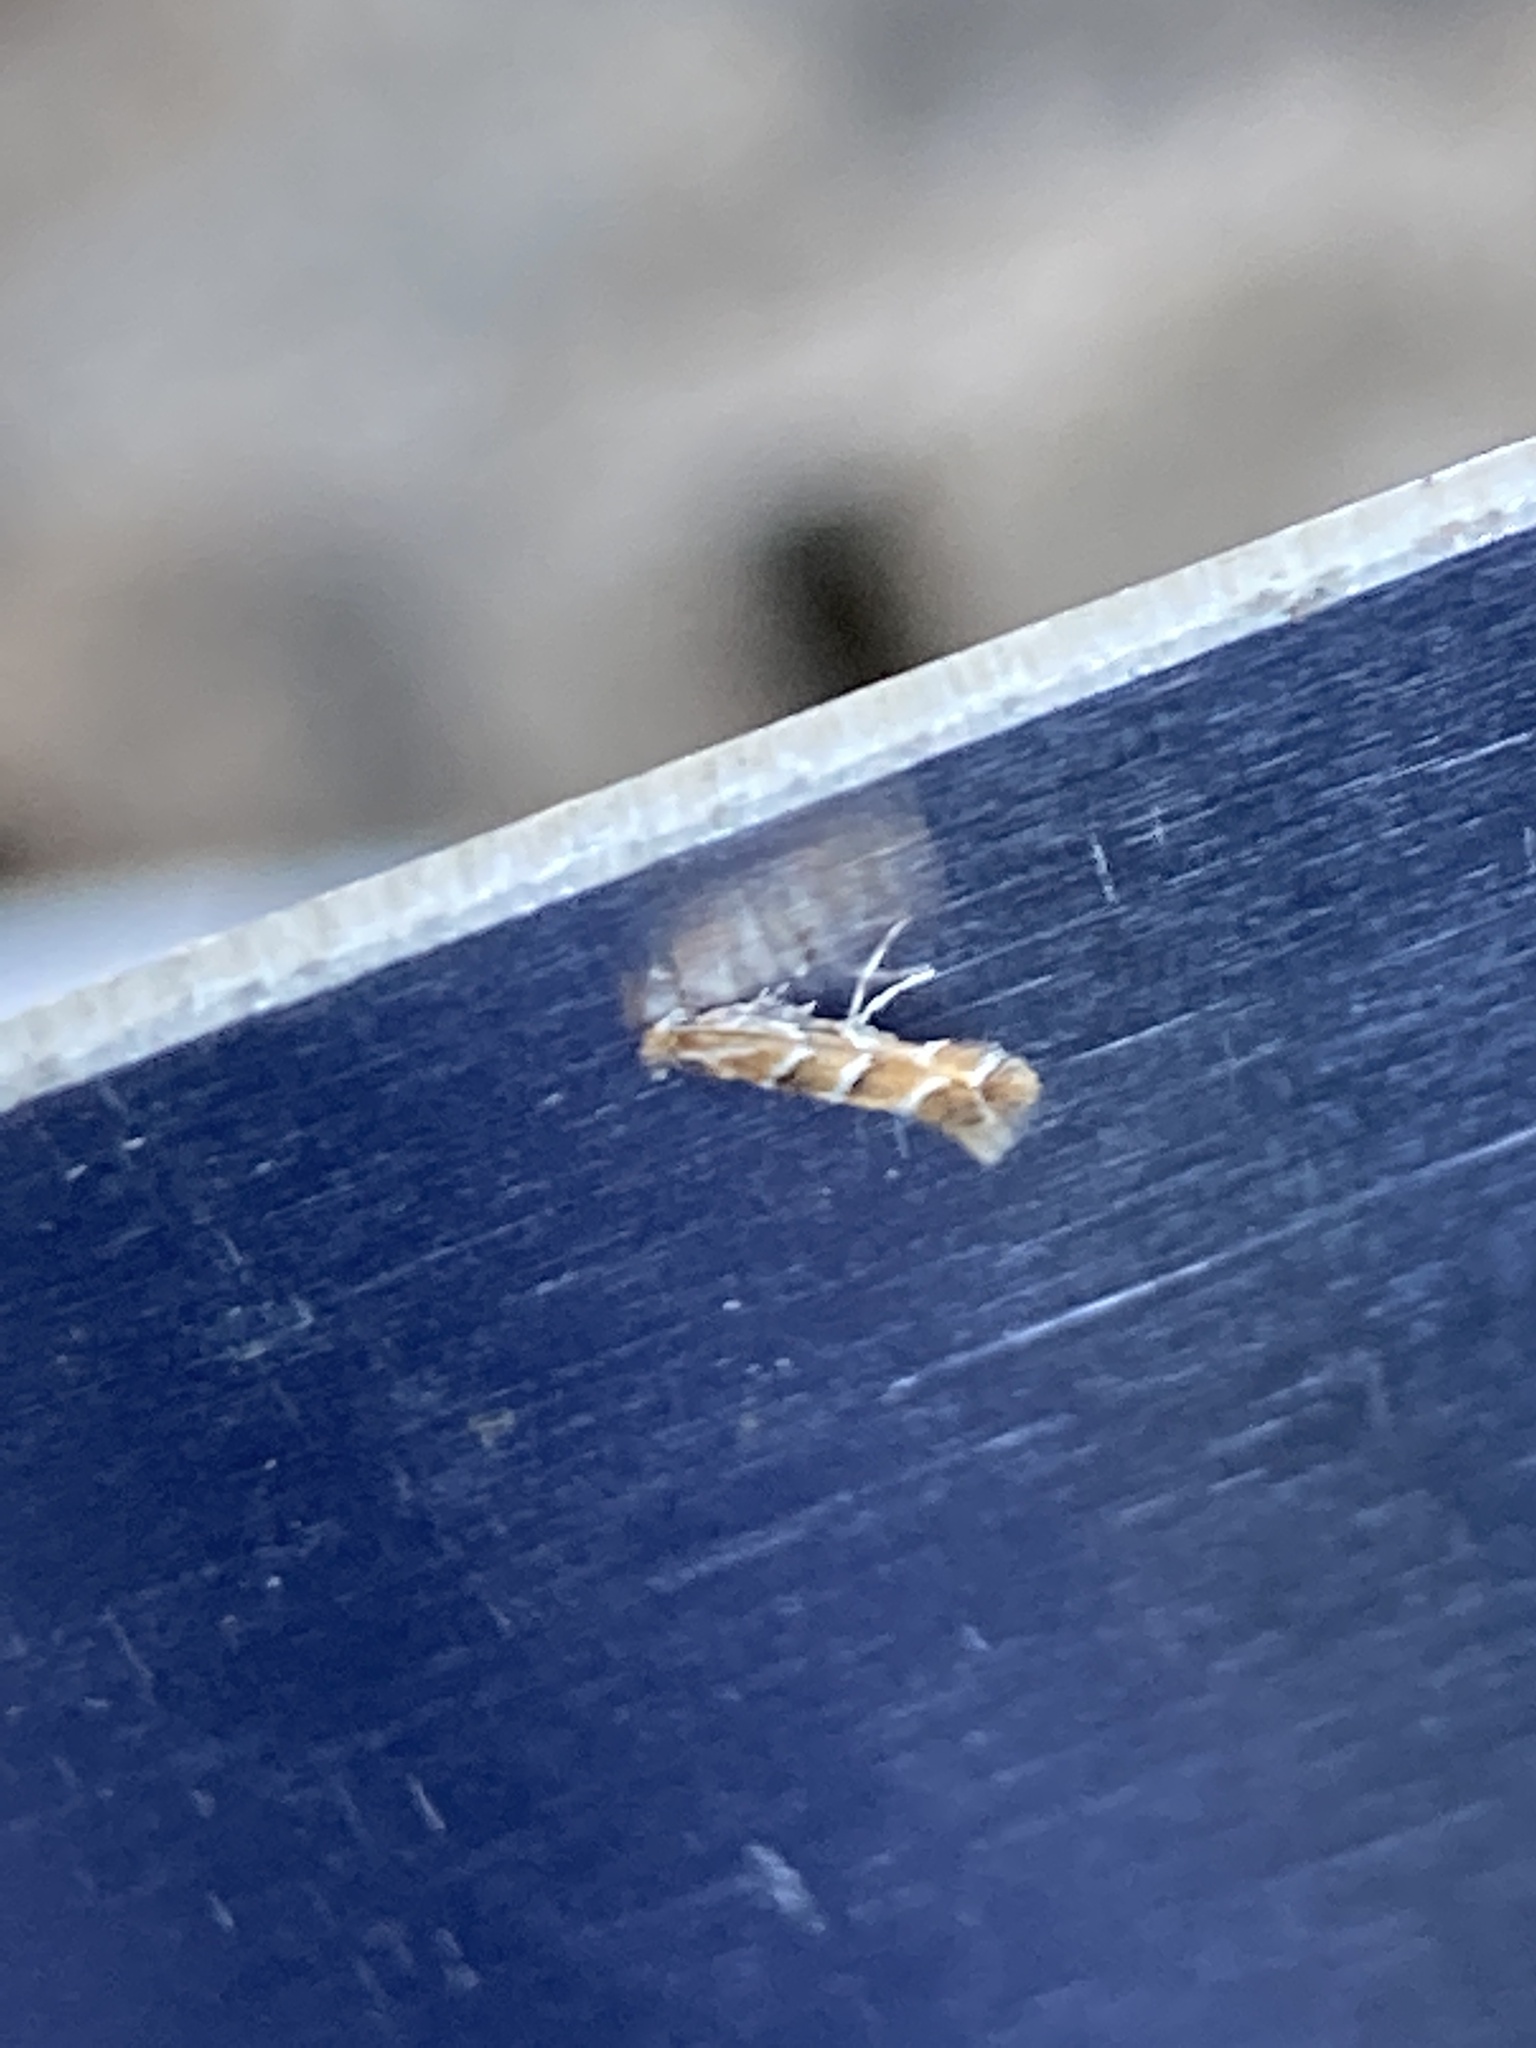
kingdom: Animalia
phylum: Arthropoda
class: Insecta
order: Lepidoptera
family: Gracillariidae
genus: Cameraria
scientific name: Cameraria ohridella
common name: Horse-chestnut leaf-miner
